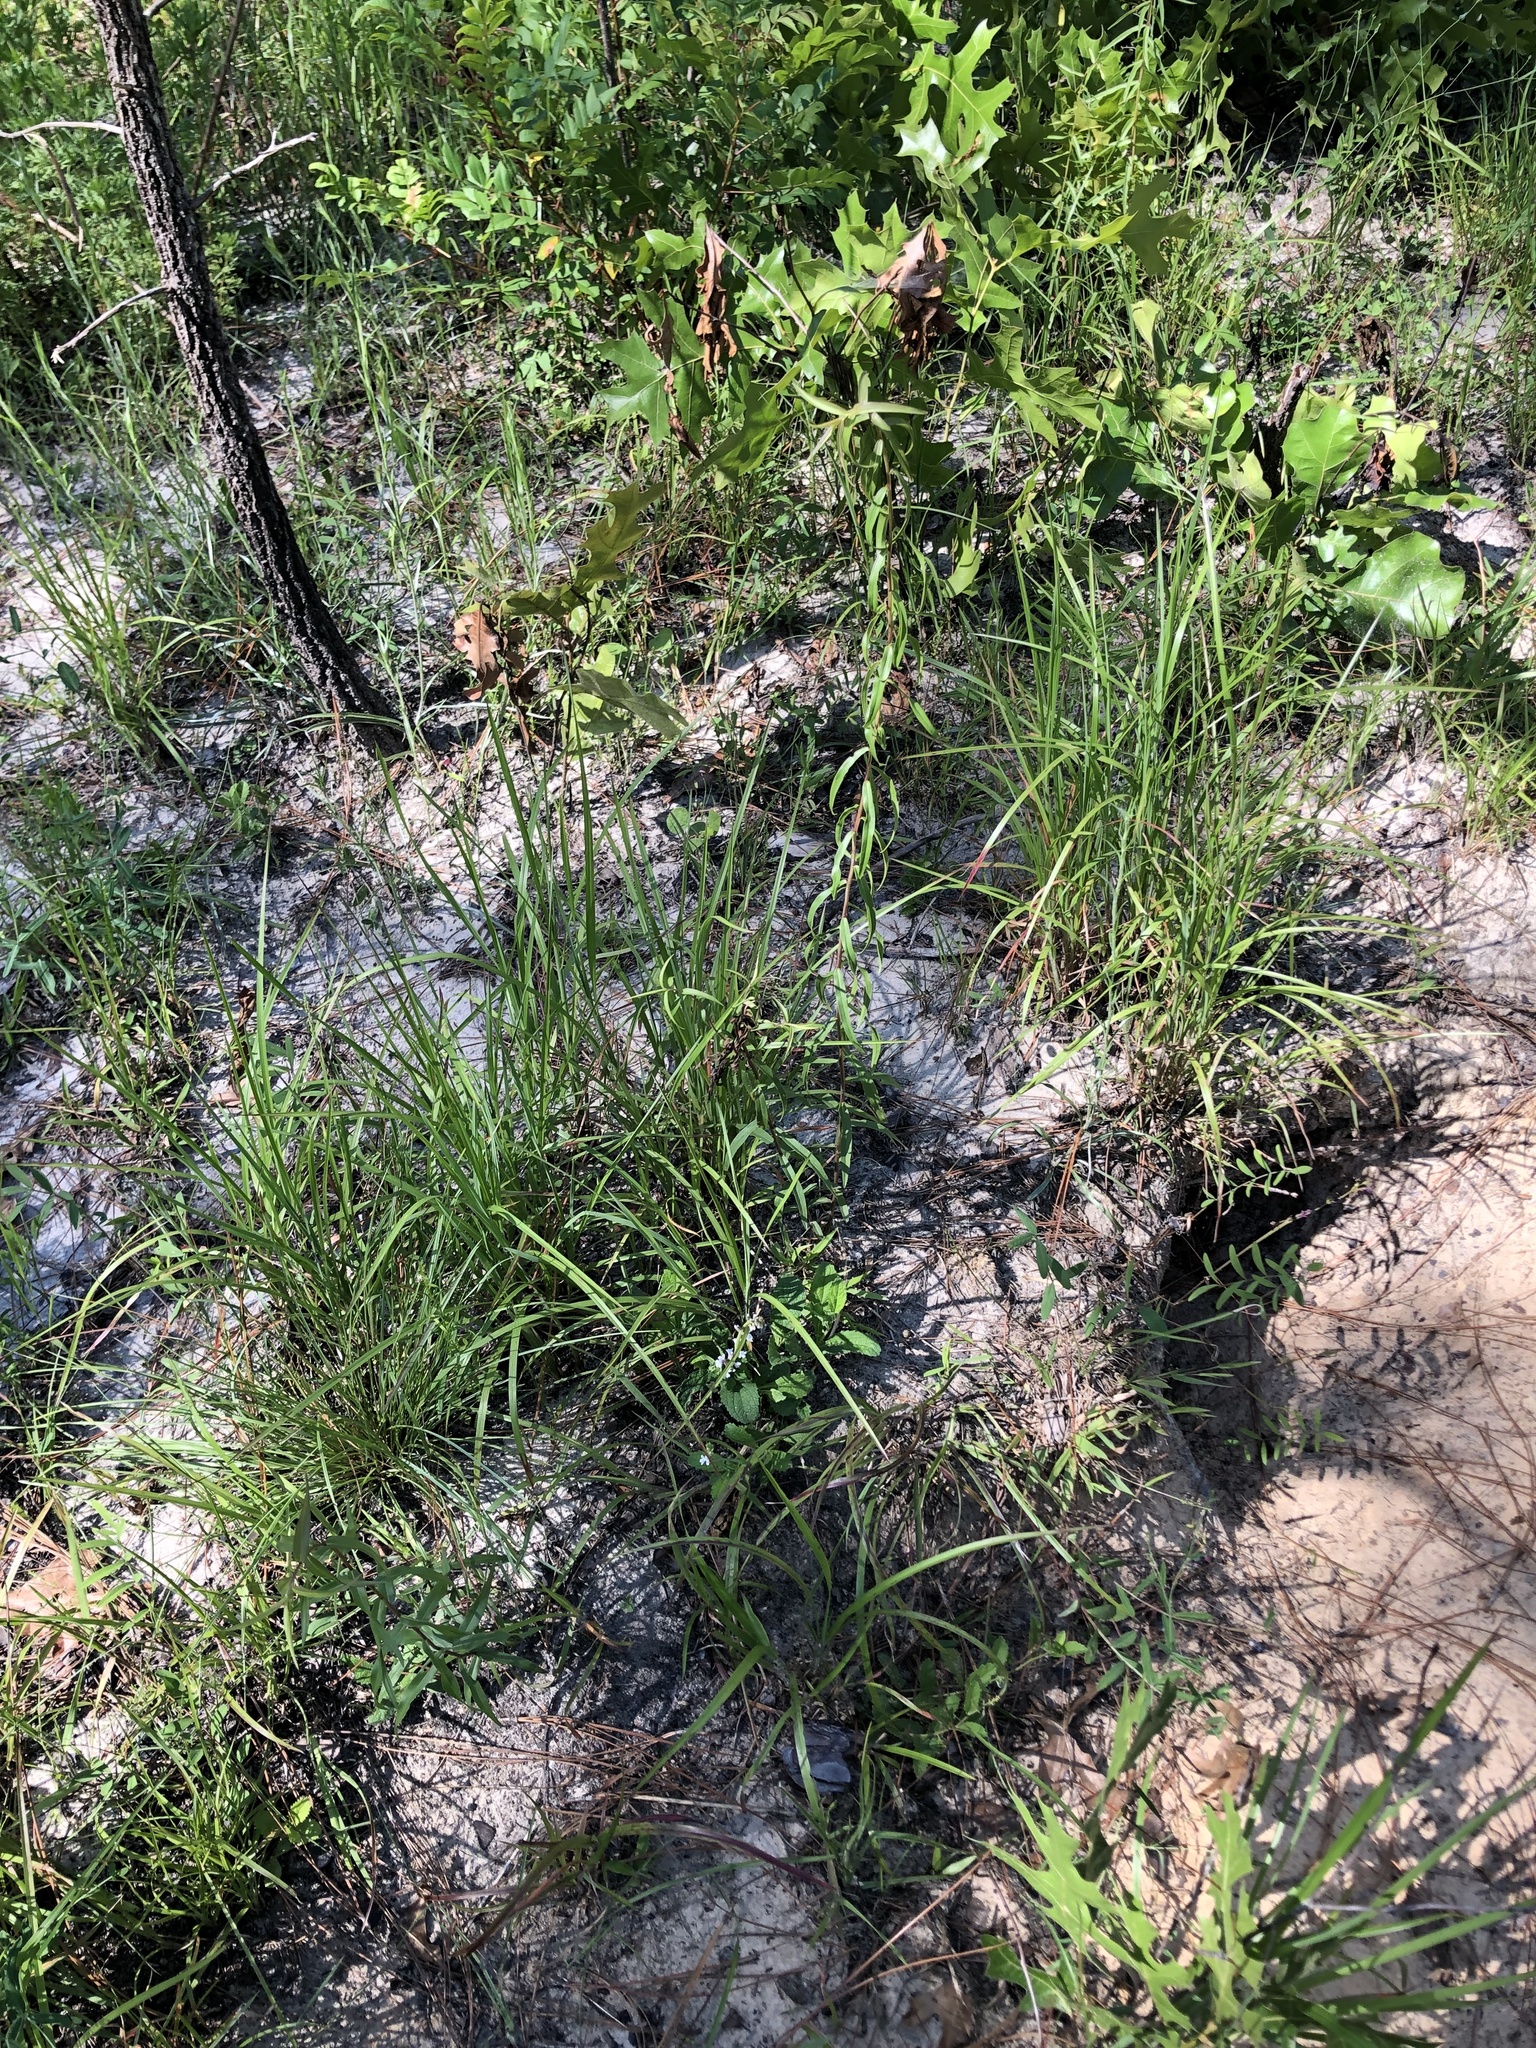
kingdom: Plantae
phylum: Tracheophyta
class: Magnoliopsida
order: Lamiales
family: Verbenaceae
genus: Verbena
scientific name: Verbena carnea
